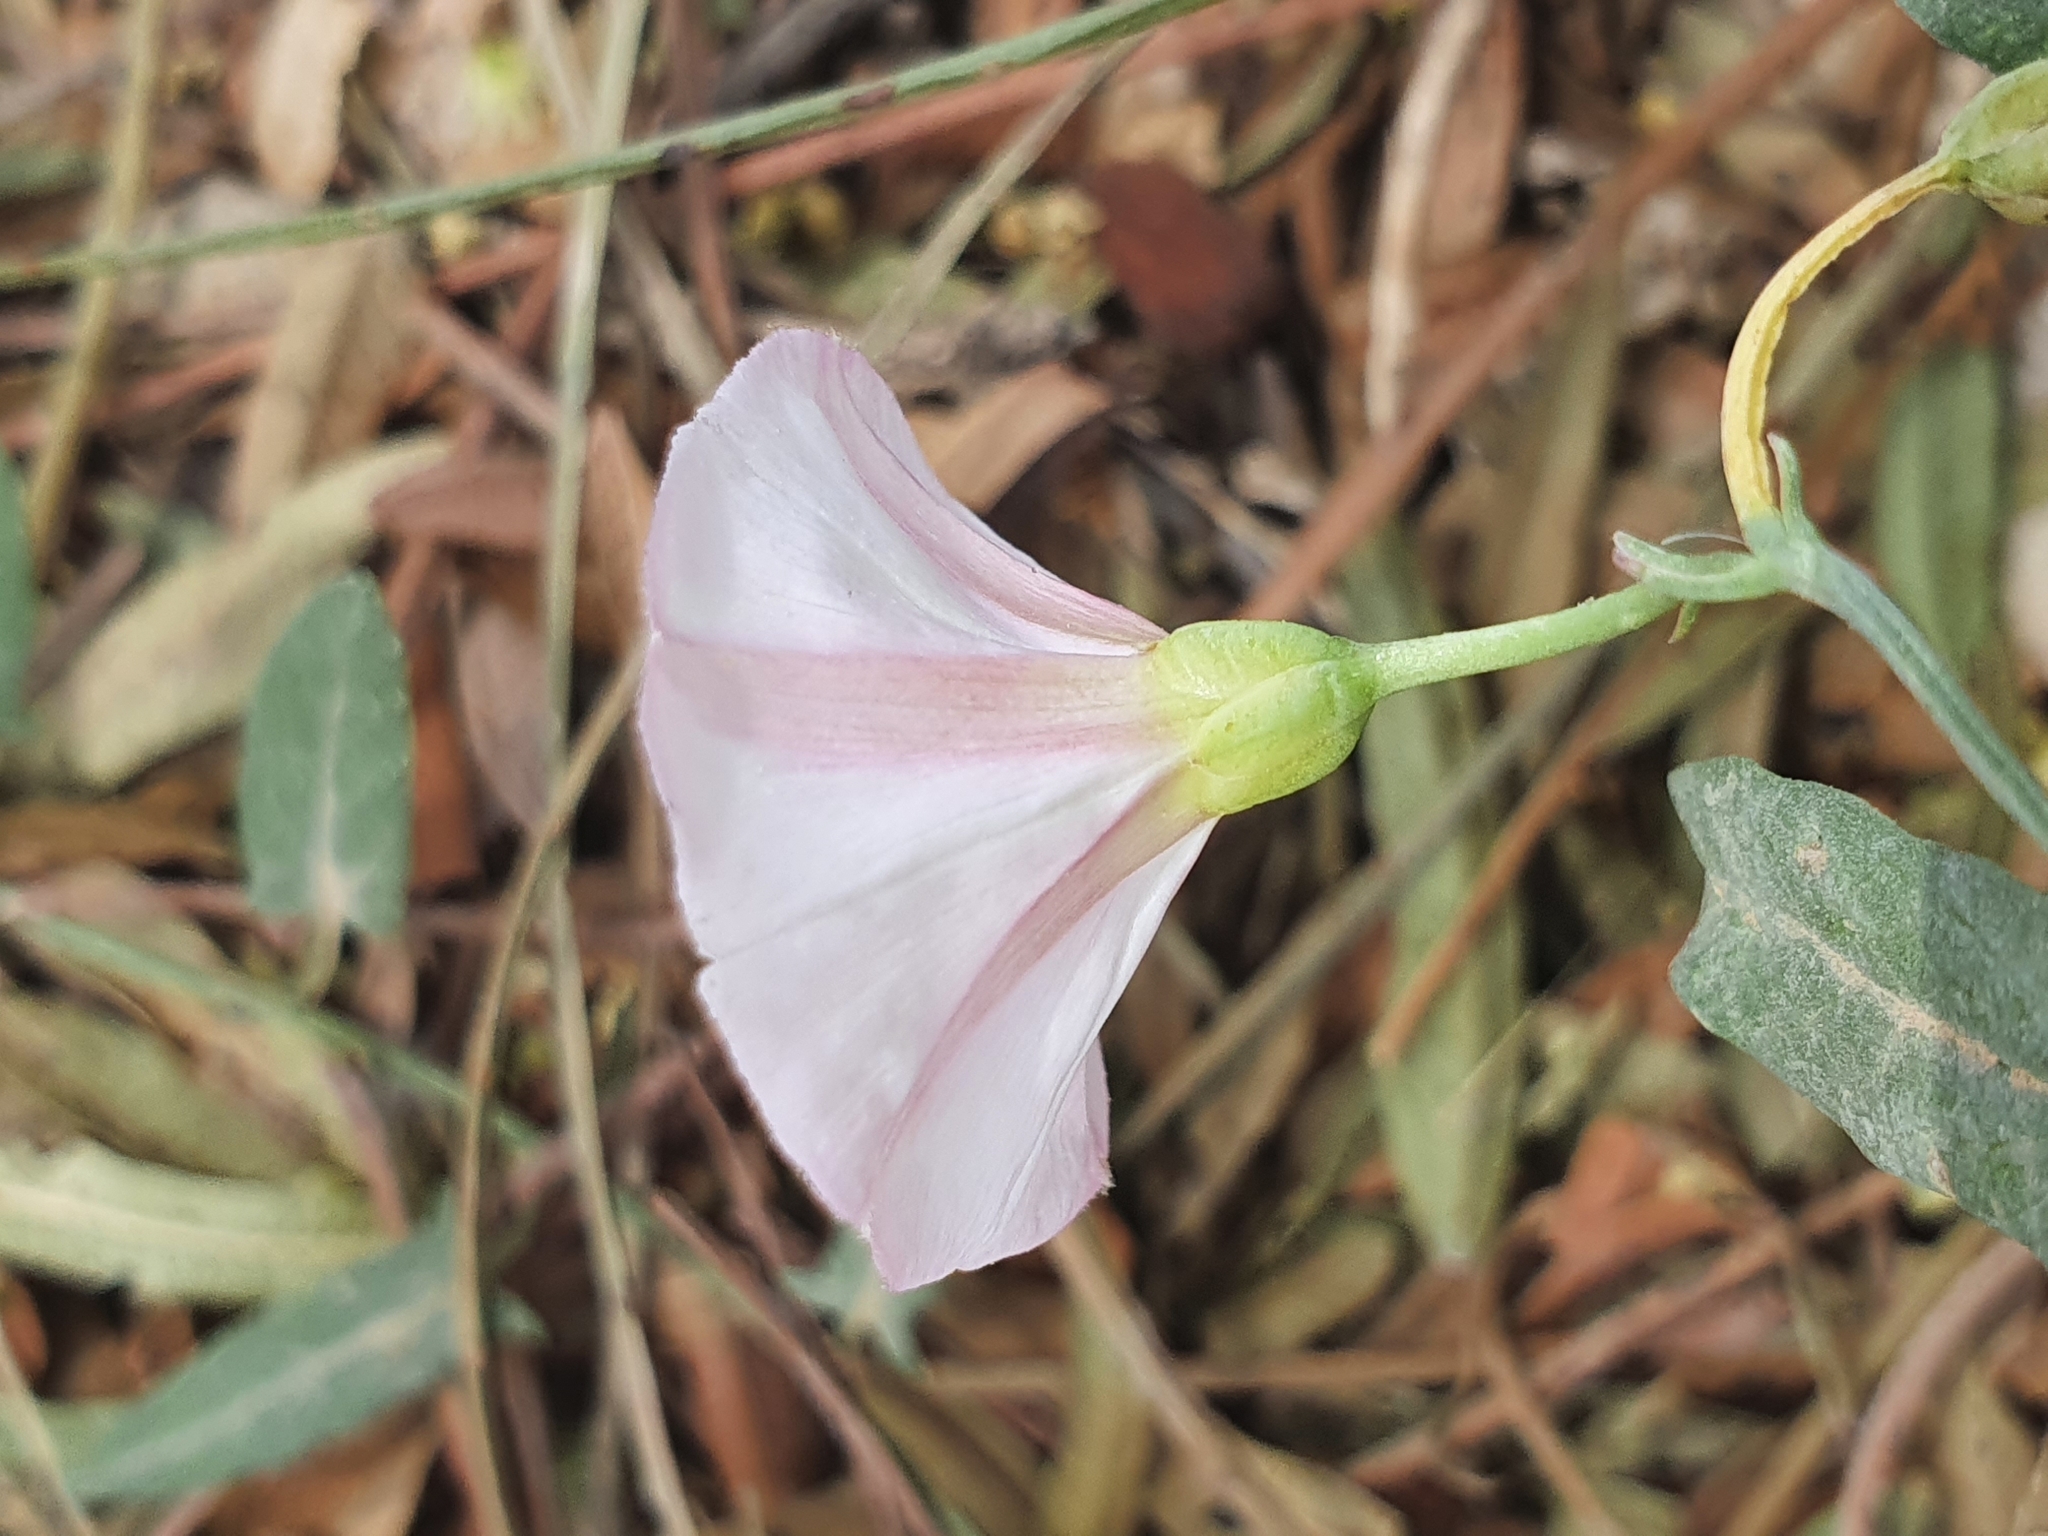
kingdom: Plantae
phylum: Tracheophyta
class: Magnoliopsida
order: Solanales
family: Convolvulaceae
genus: Convolvulus
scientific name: Convolvulus arvensis
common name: Field bindweed
